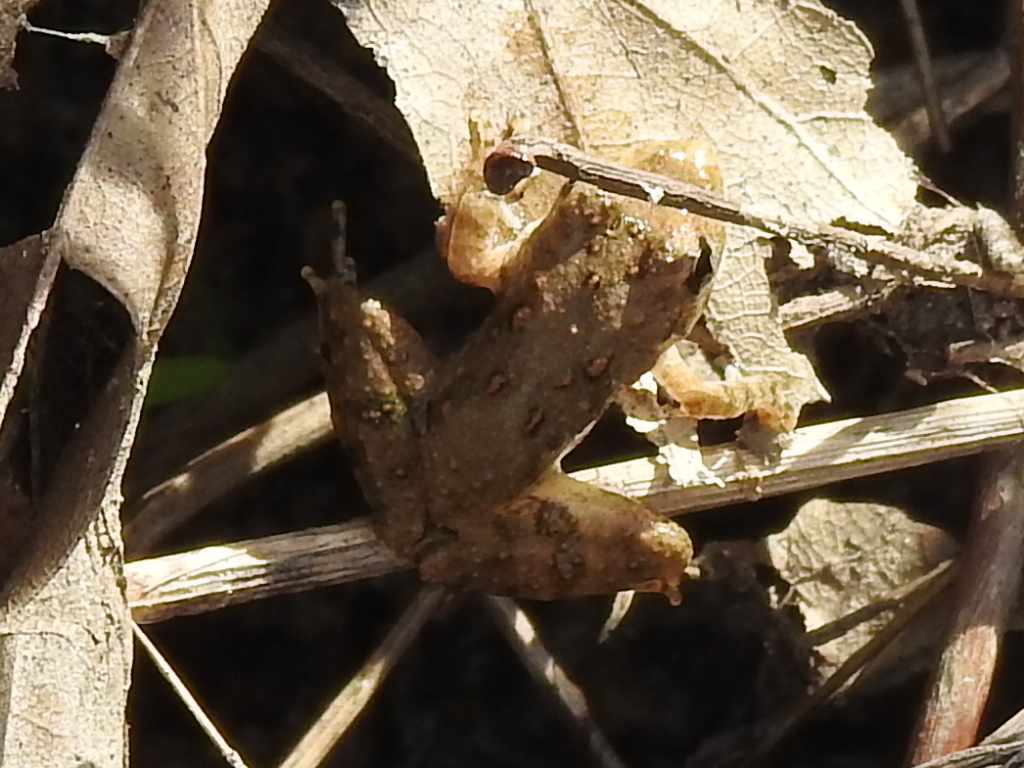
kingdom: Animalia
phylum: Chordata
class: Amphibia
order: Anura
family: Hylidae
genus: Acris
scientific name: Acris blanchardi
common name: Blanchard's cricket frog
